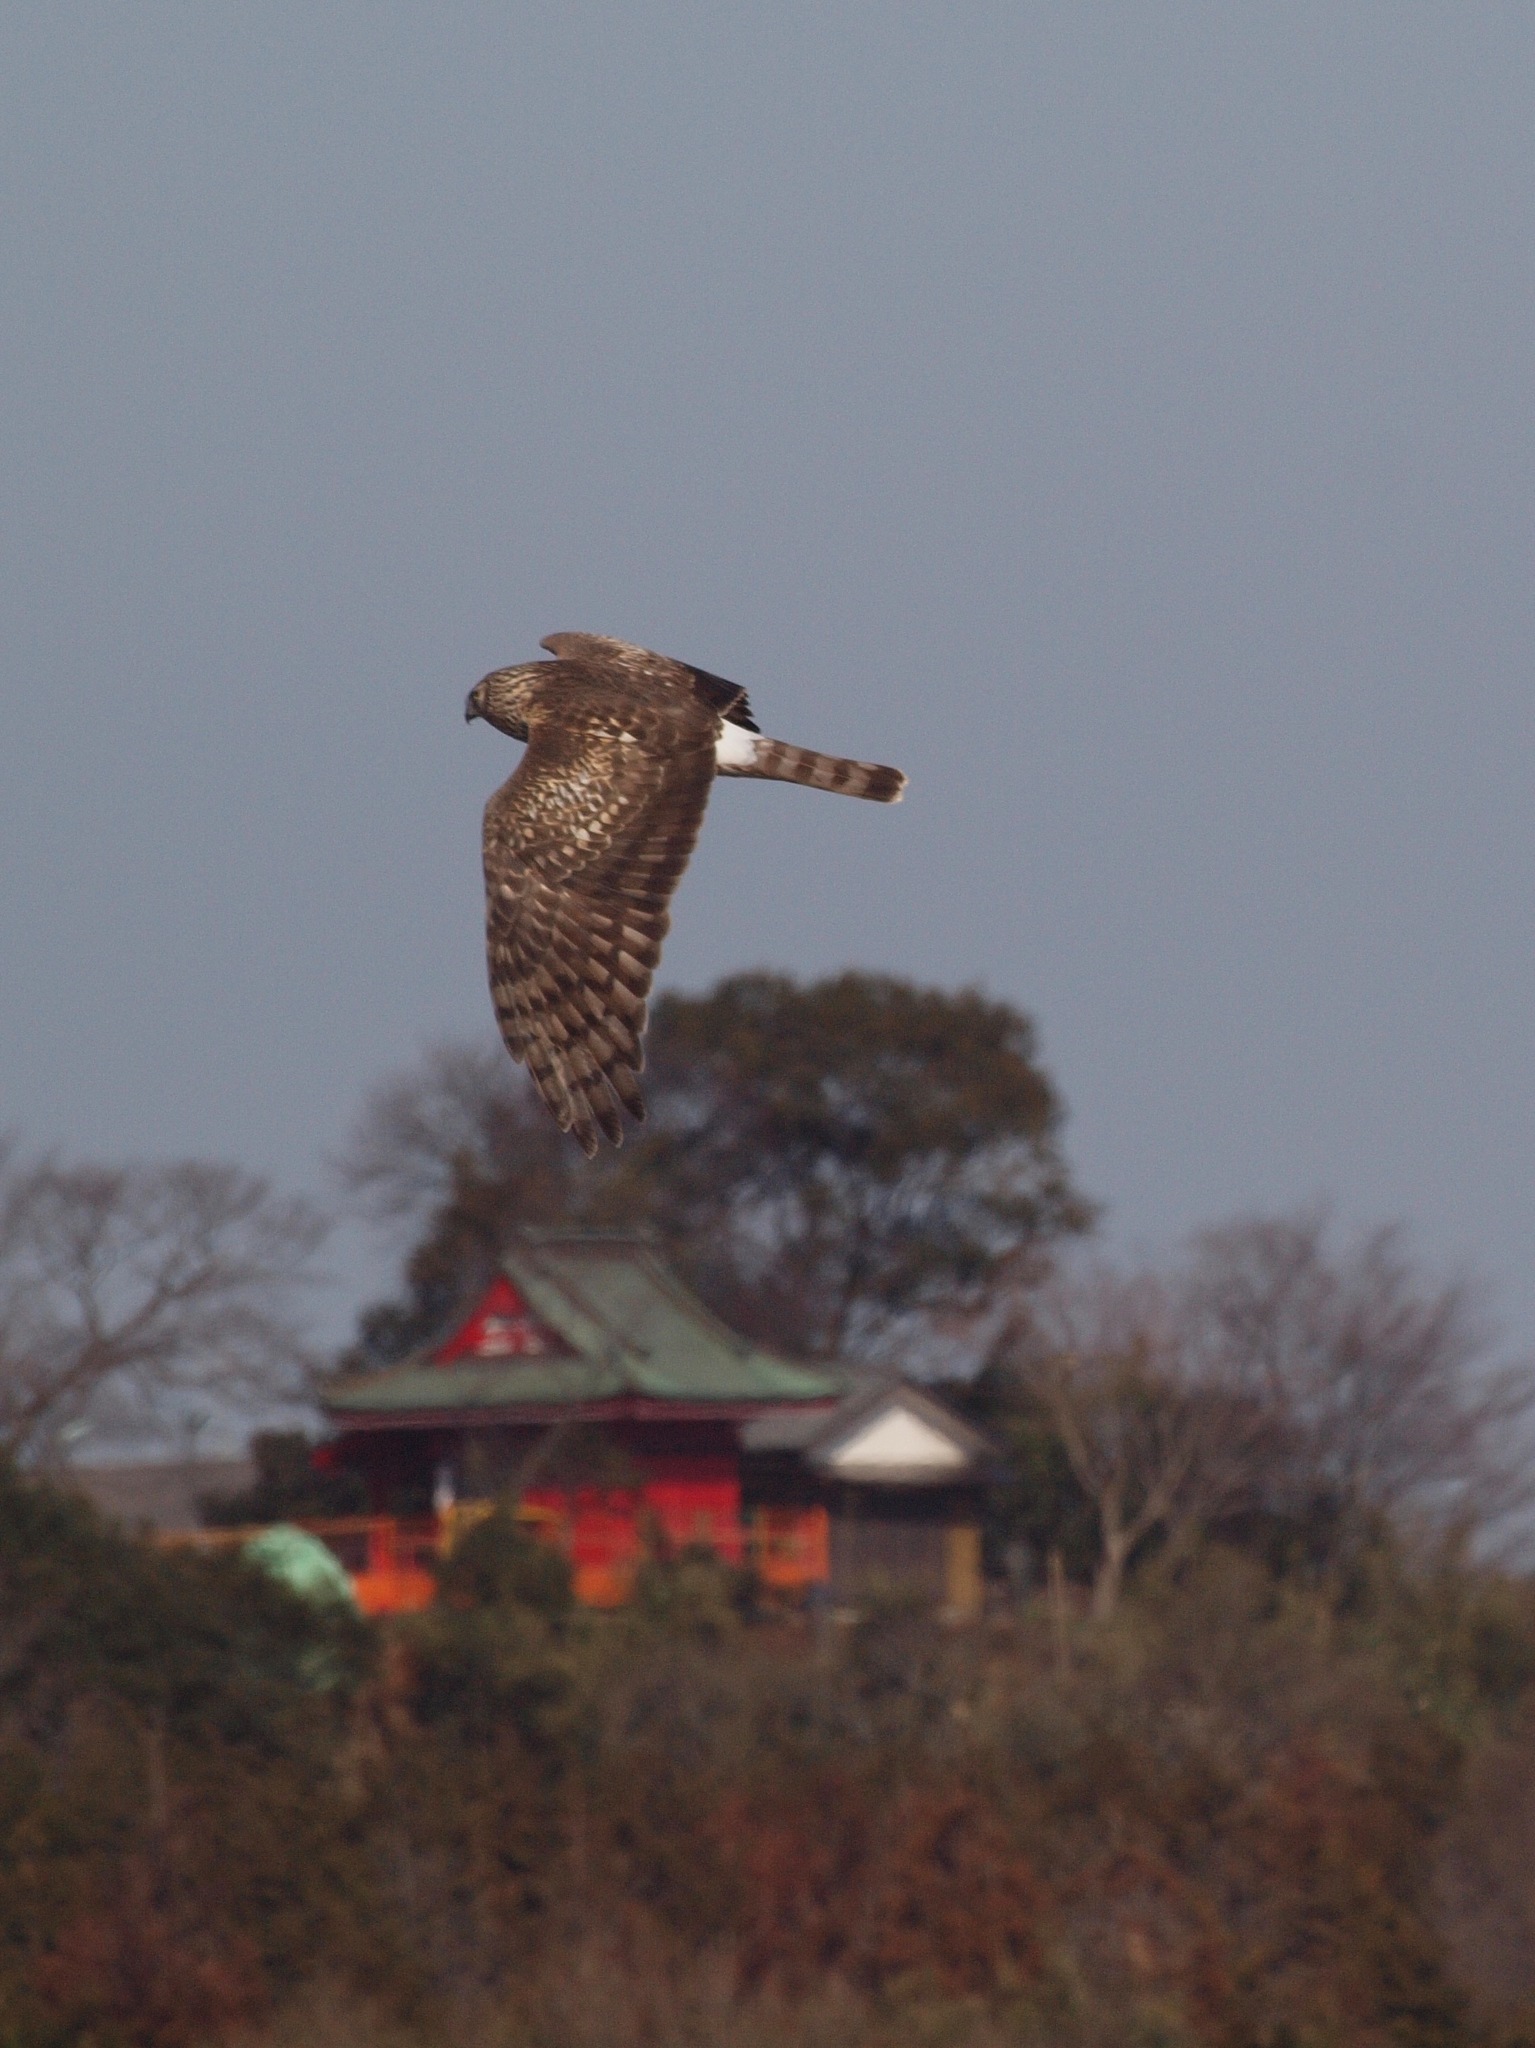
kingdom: Animalia
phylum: Chordata
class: Aves
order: Accipitriformes
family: Accipitridae
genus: Circus
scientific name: Circus cyaneus
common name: Hen harrier
